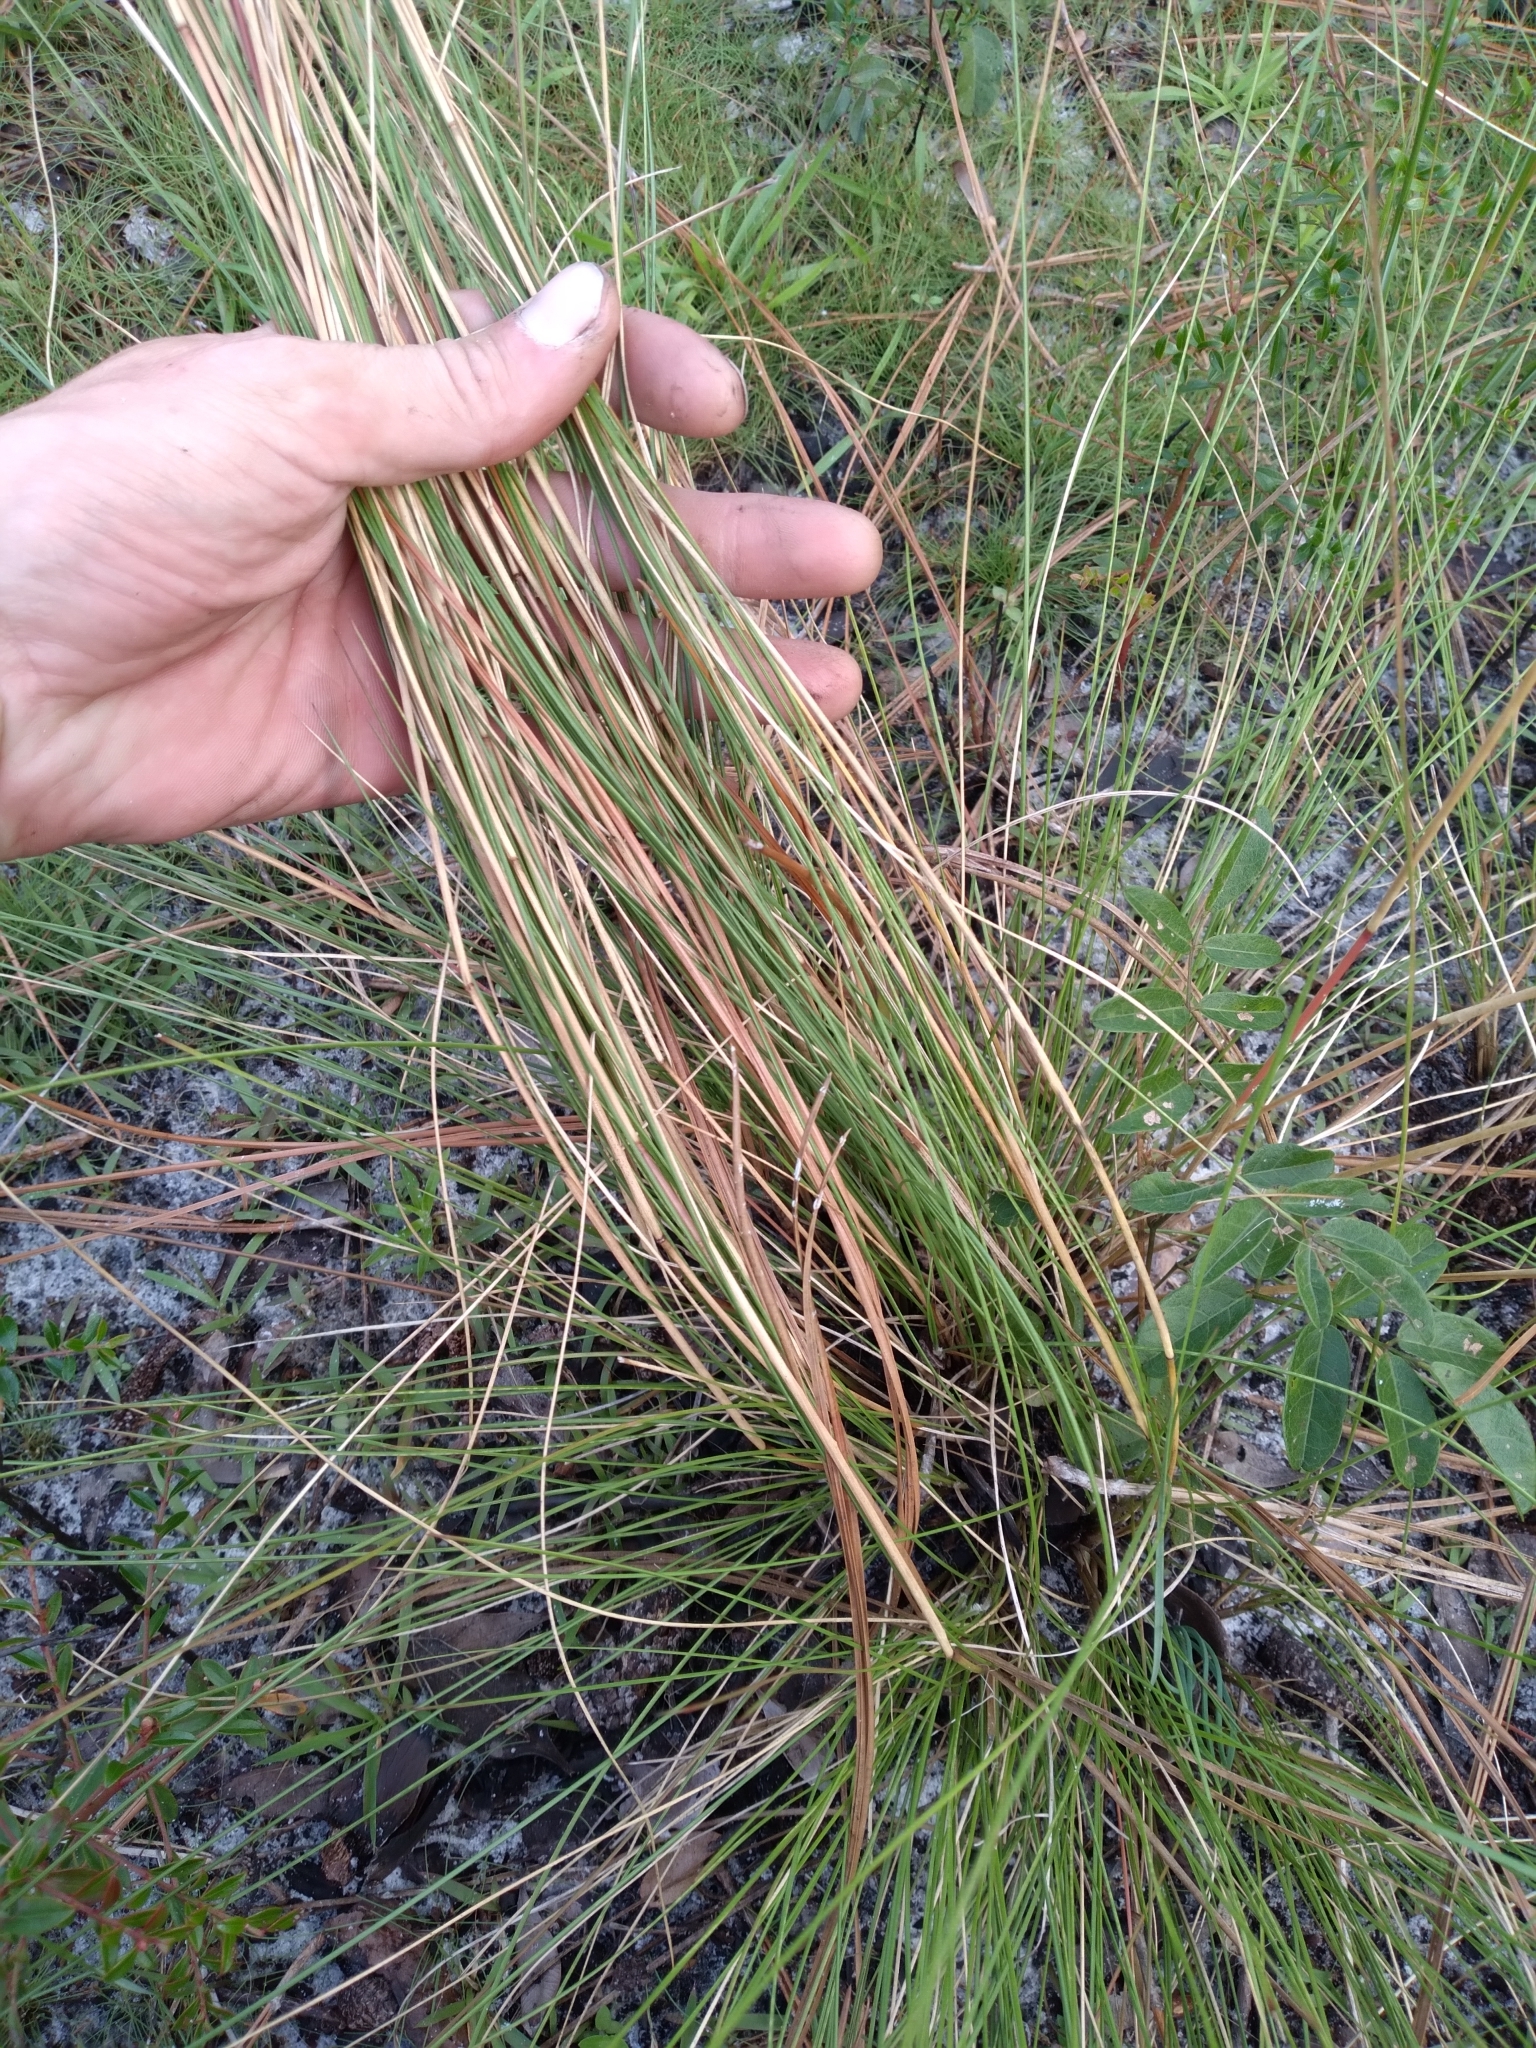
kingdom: Plantae
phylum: Tracheophyta
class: Liliopsida
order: Poales
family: Poaceae
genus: Aristida
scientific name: Aristida beyrichiana
